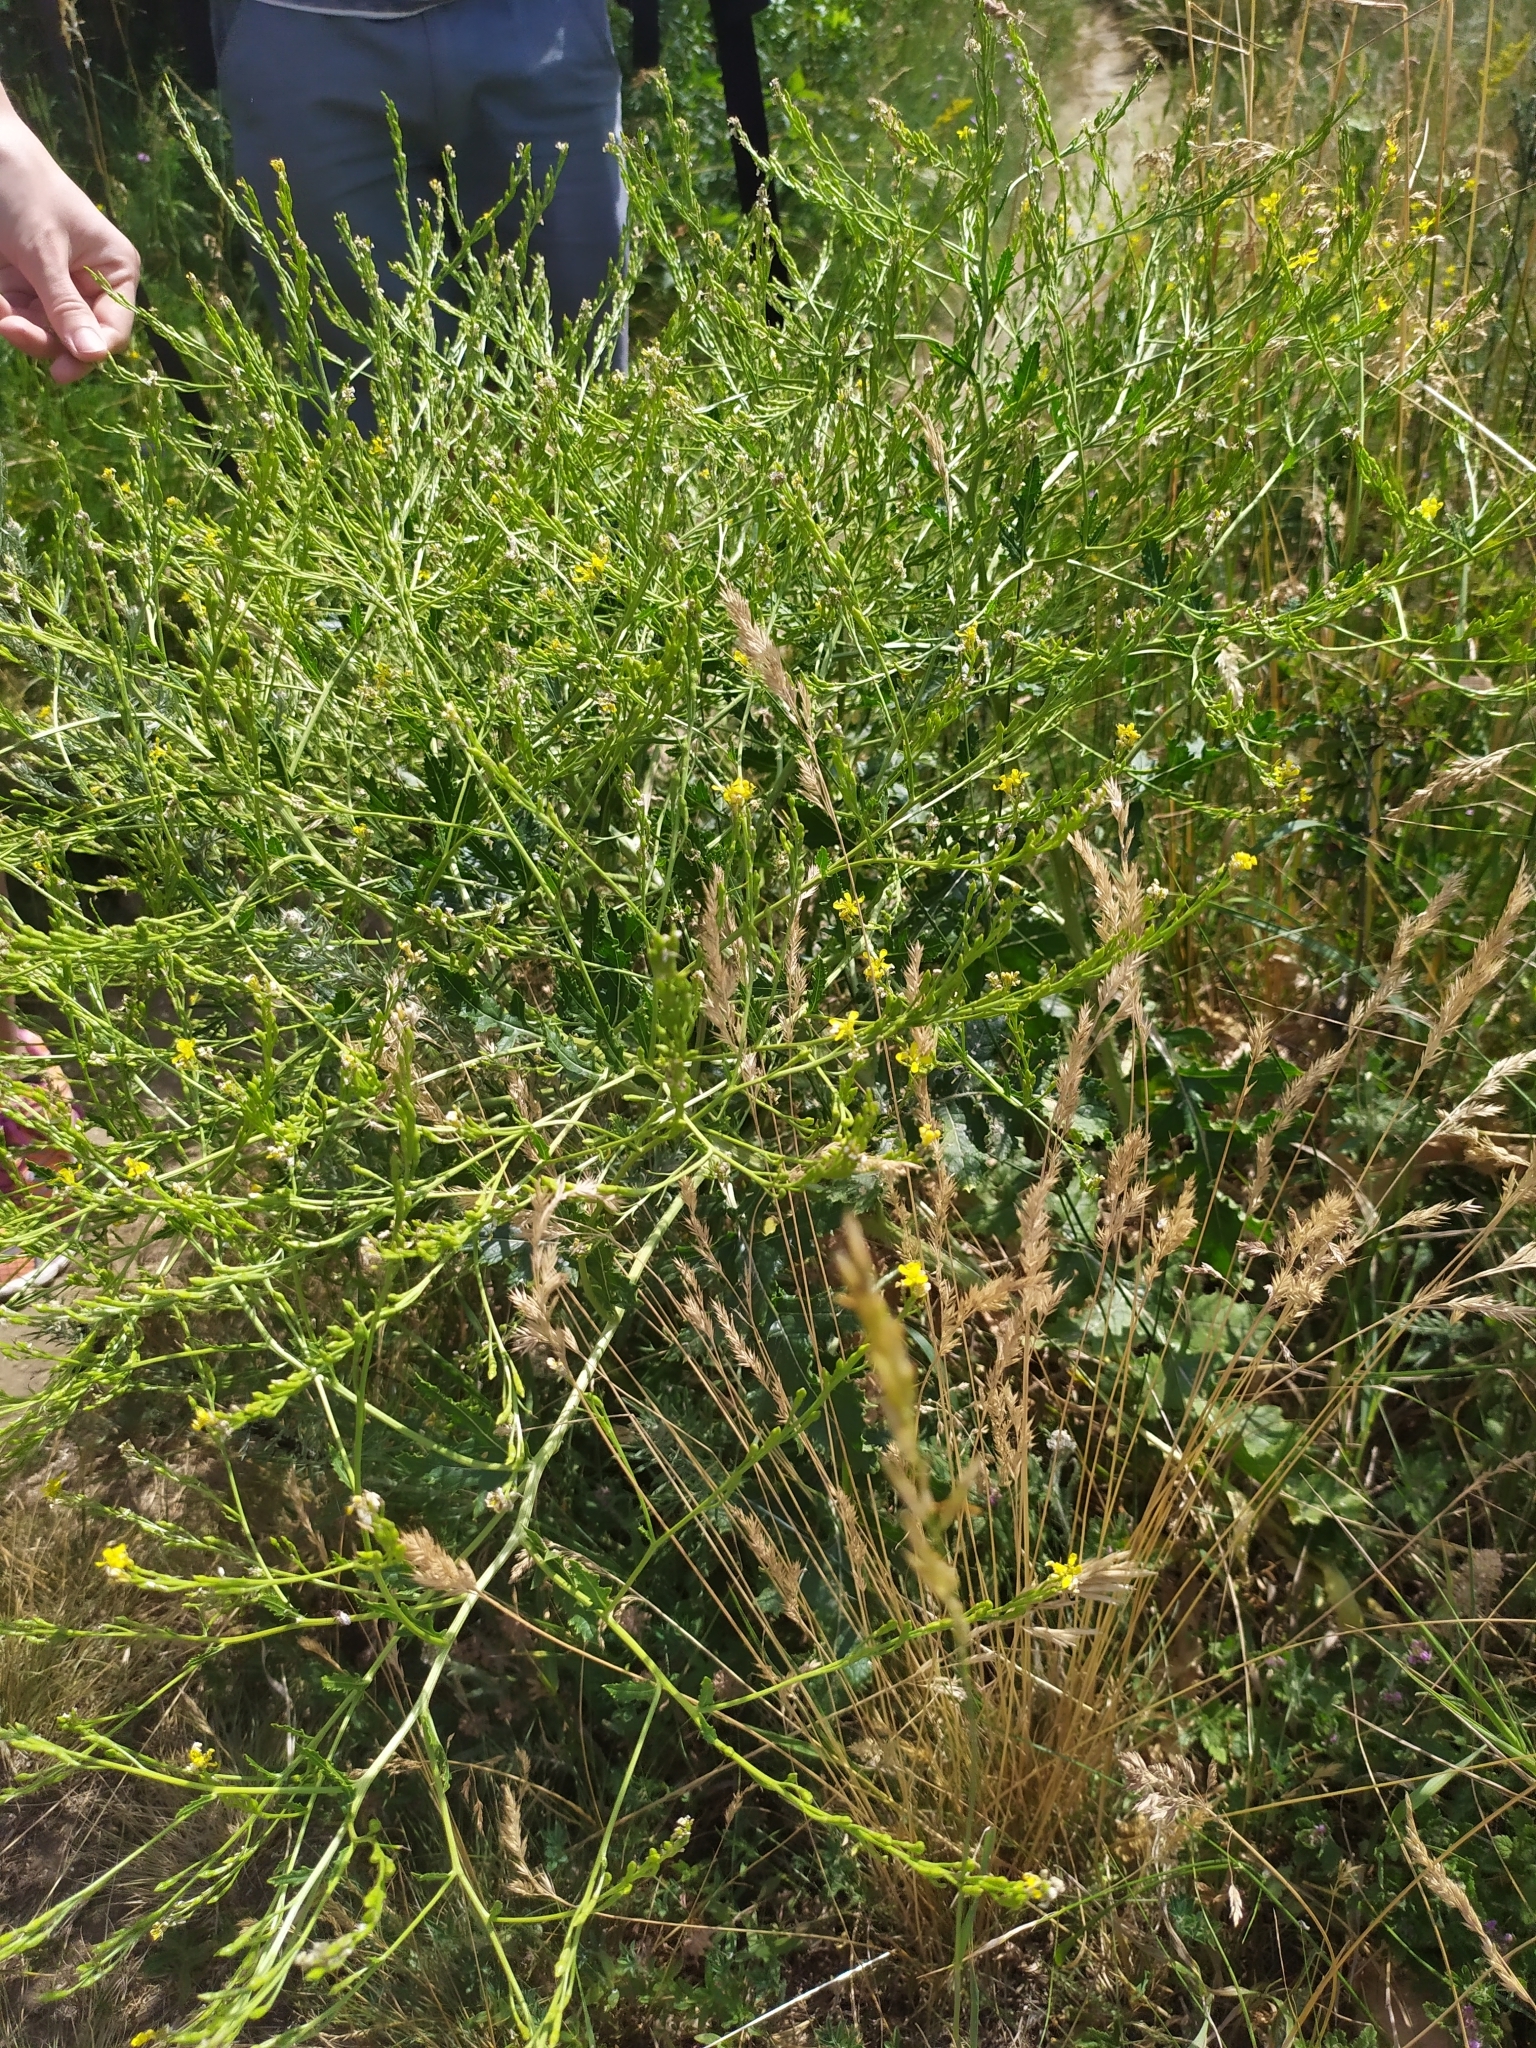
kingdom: Plantae
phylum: Tracheophyta
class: Magnoliopsida
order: Brassicales
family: Brassicaceae
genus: Rapistrum
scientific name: Rapistrum perenne
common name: Steppe cabbage
